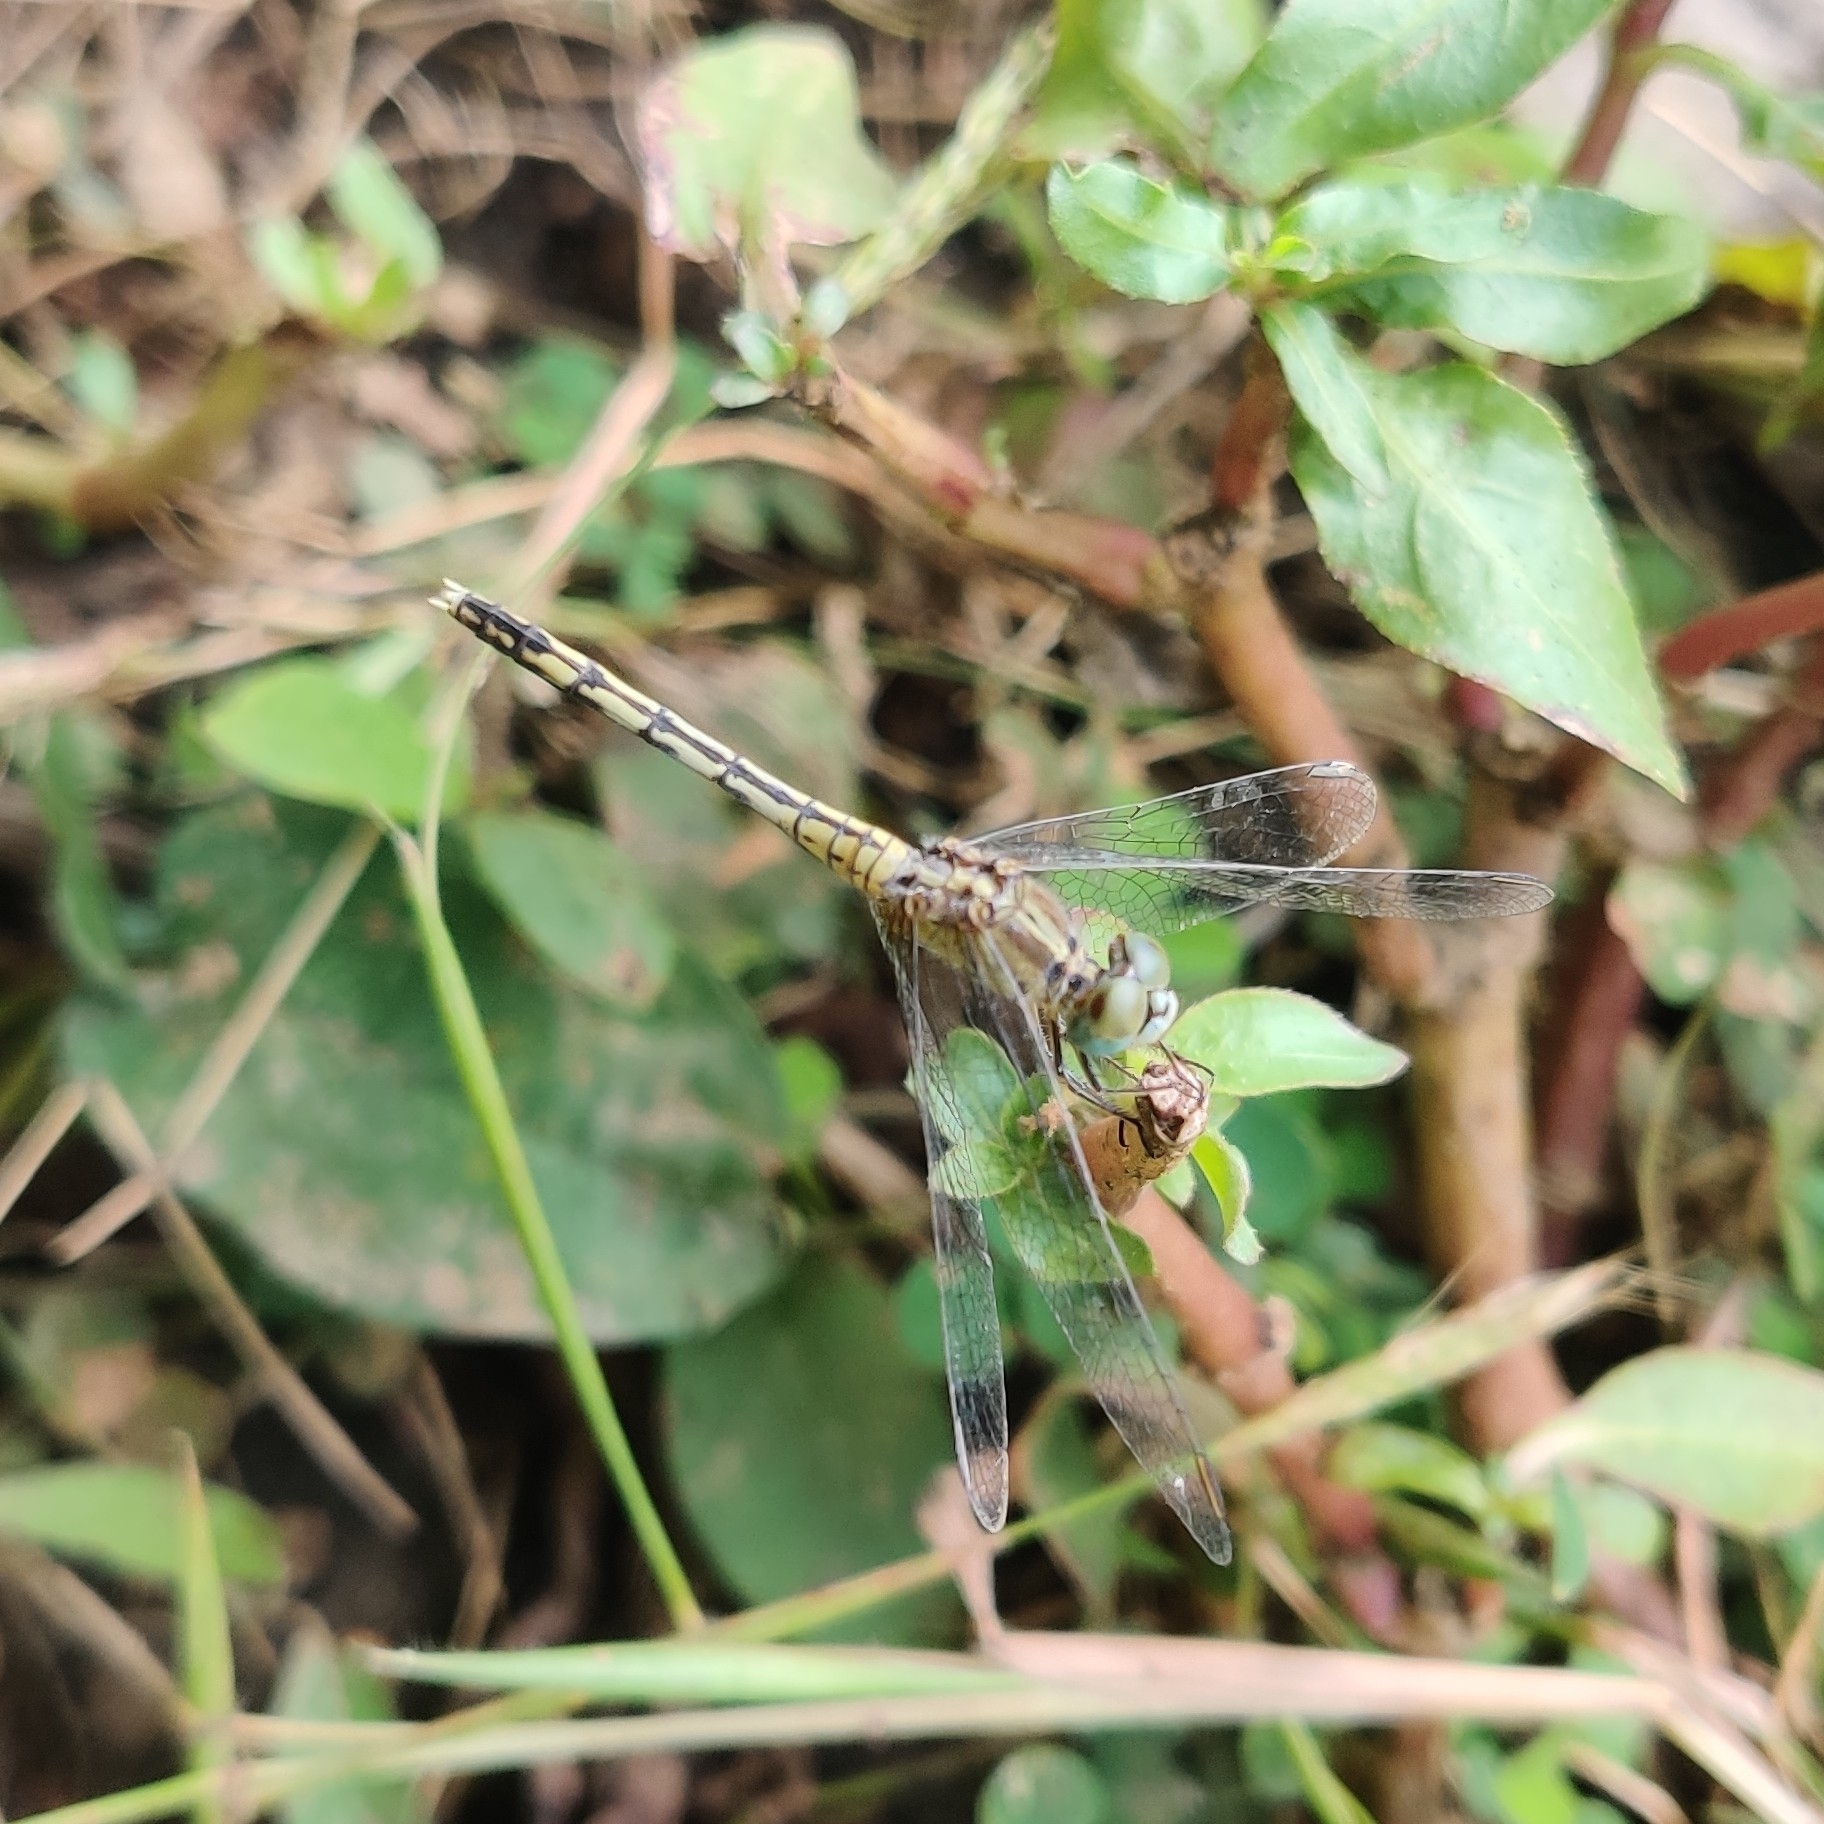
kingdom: Animalia
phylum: Arthropoda
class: Insecta
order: Odonata
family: Libellulidae
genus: Diplacodes
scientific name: Diplacodes trivialis
